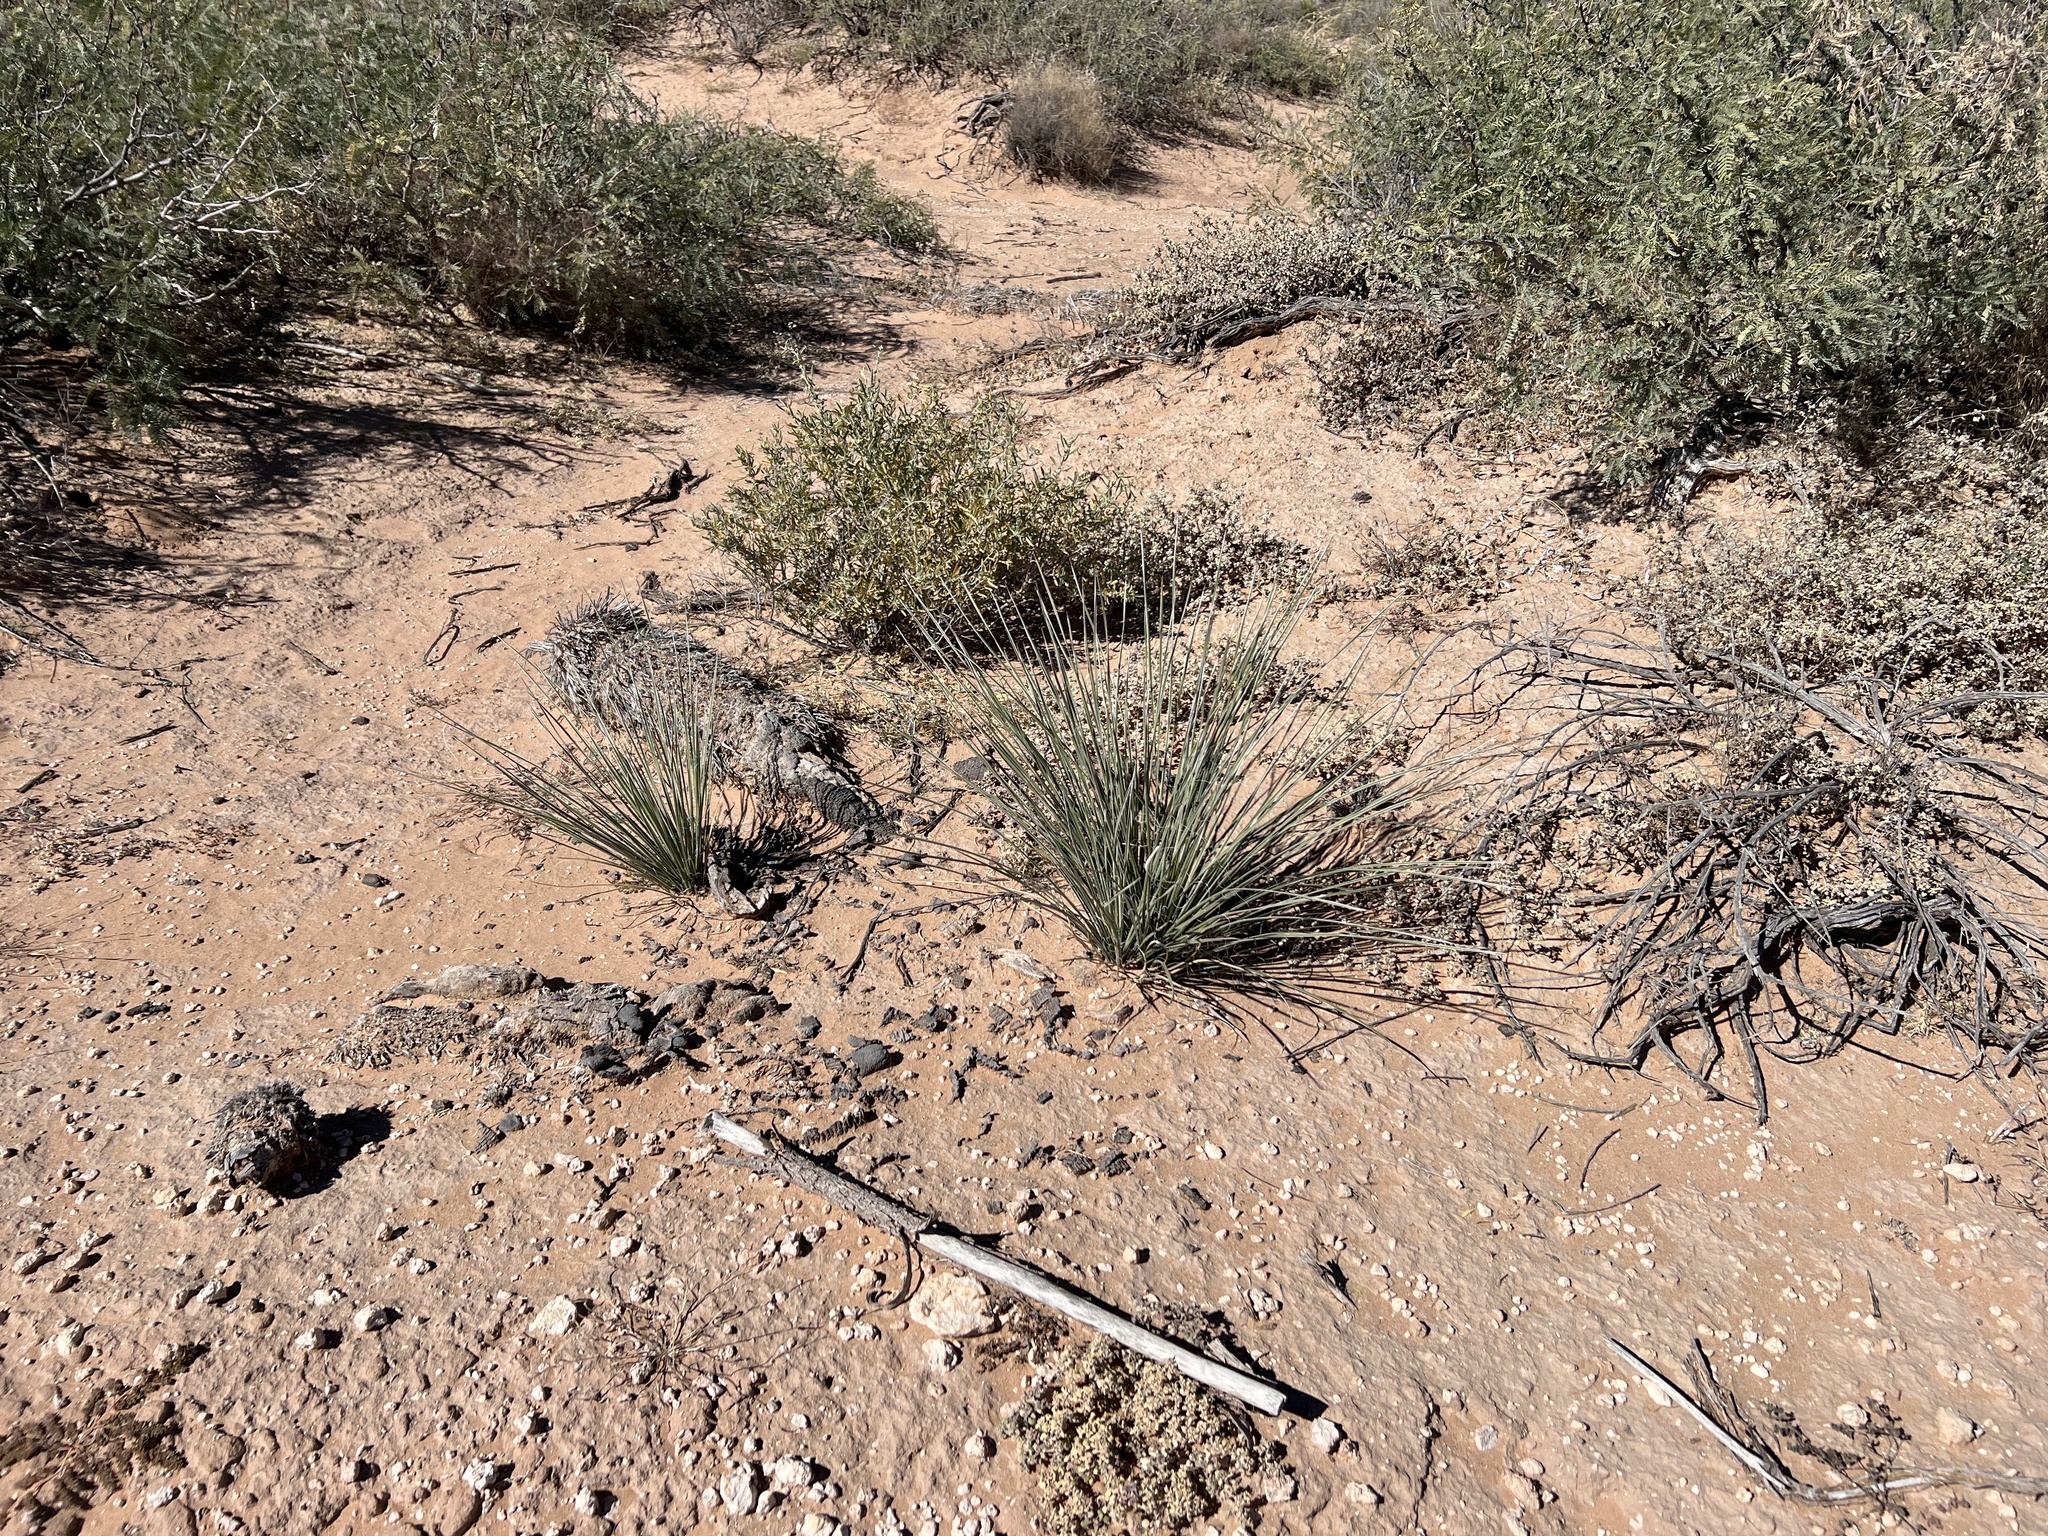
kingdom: Plantae
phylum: Tracheophyta
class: Liliopsida
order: Asparagales
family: Asparagaceae
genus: Yucca
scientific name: Yucca elata
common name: Palmella
